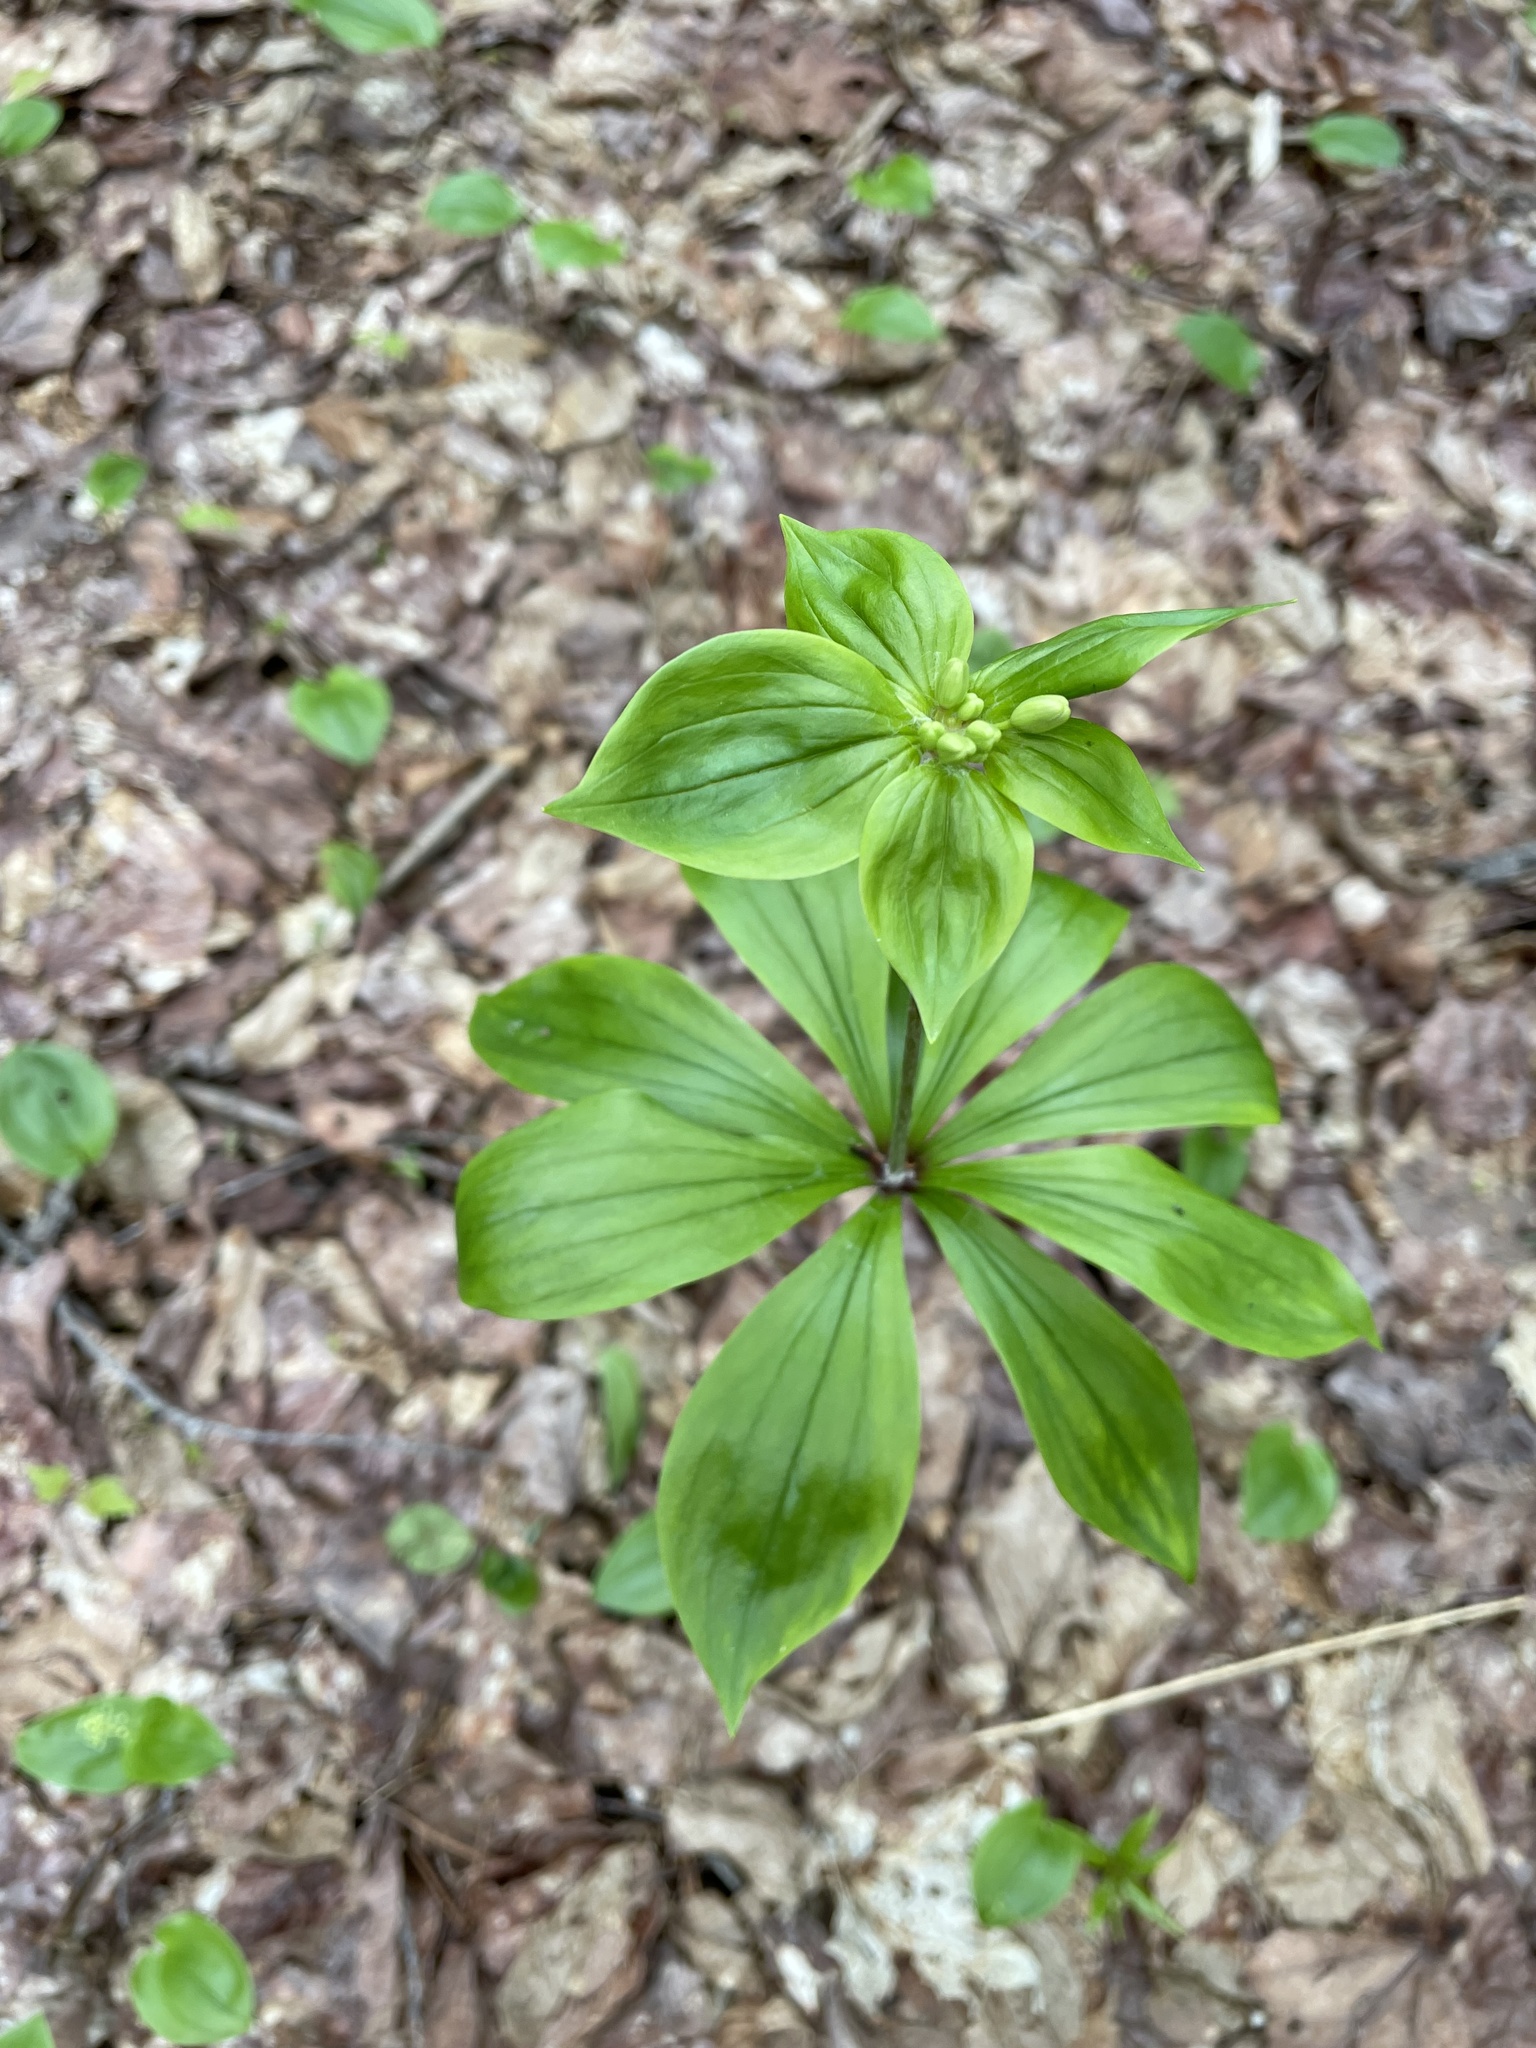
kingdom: Plantae
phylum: Tracheophyta
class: Liliopsida
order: Liliales
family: Liliaceae
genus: Medeola
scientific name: Medeola virginiana
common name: Indian cucumber-root
